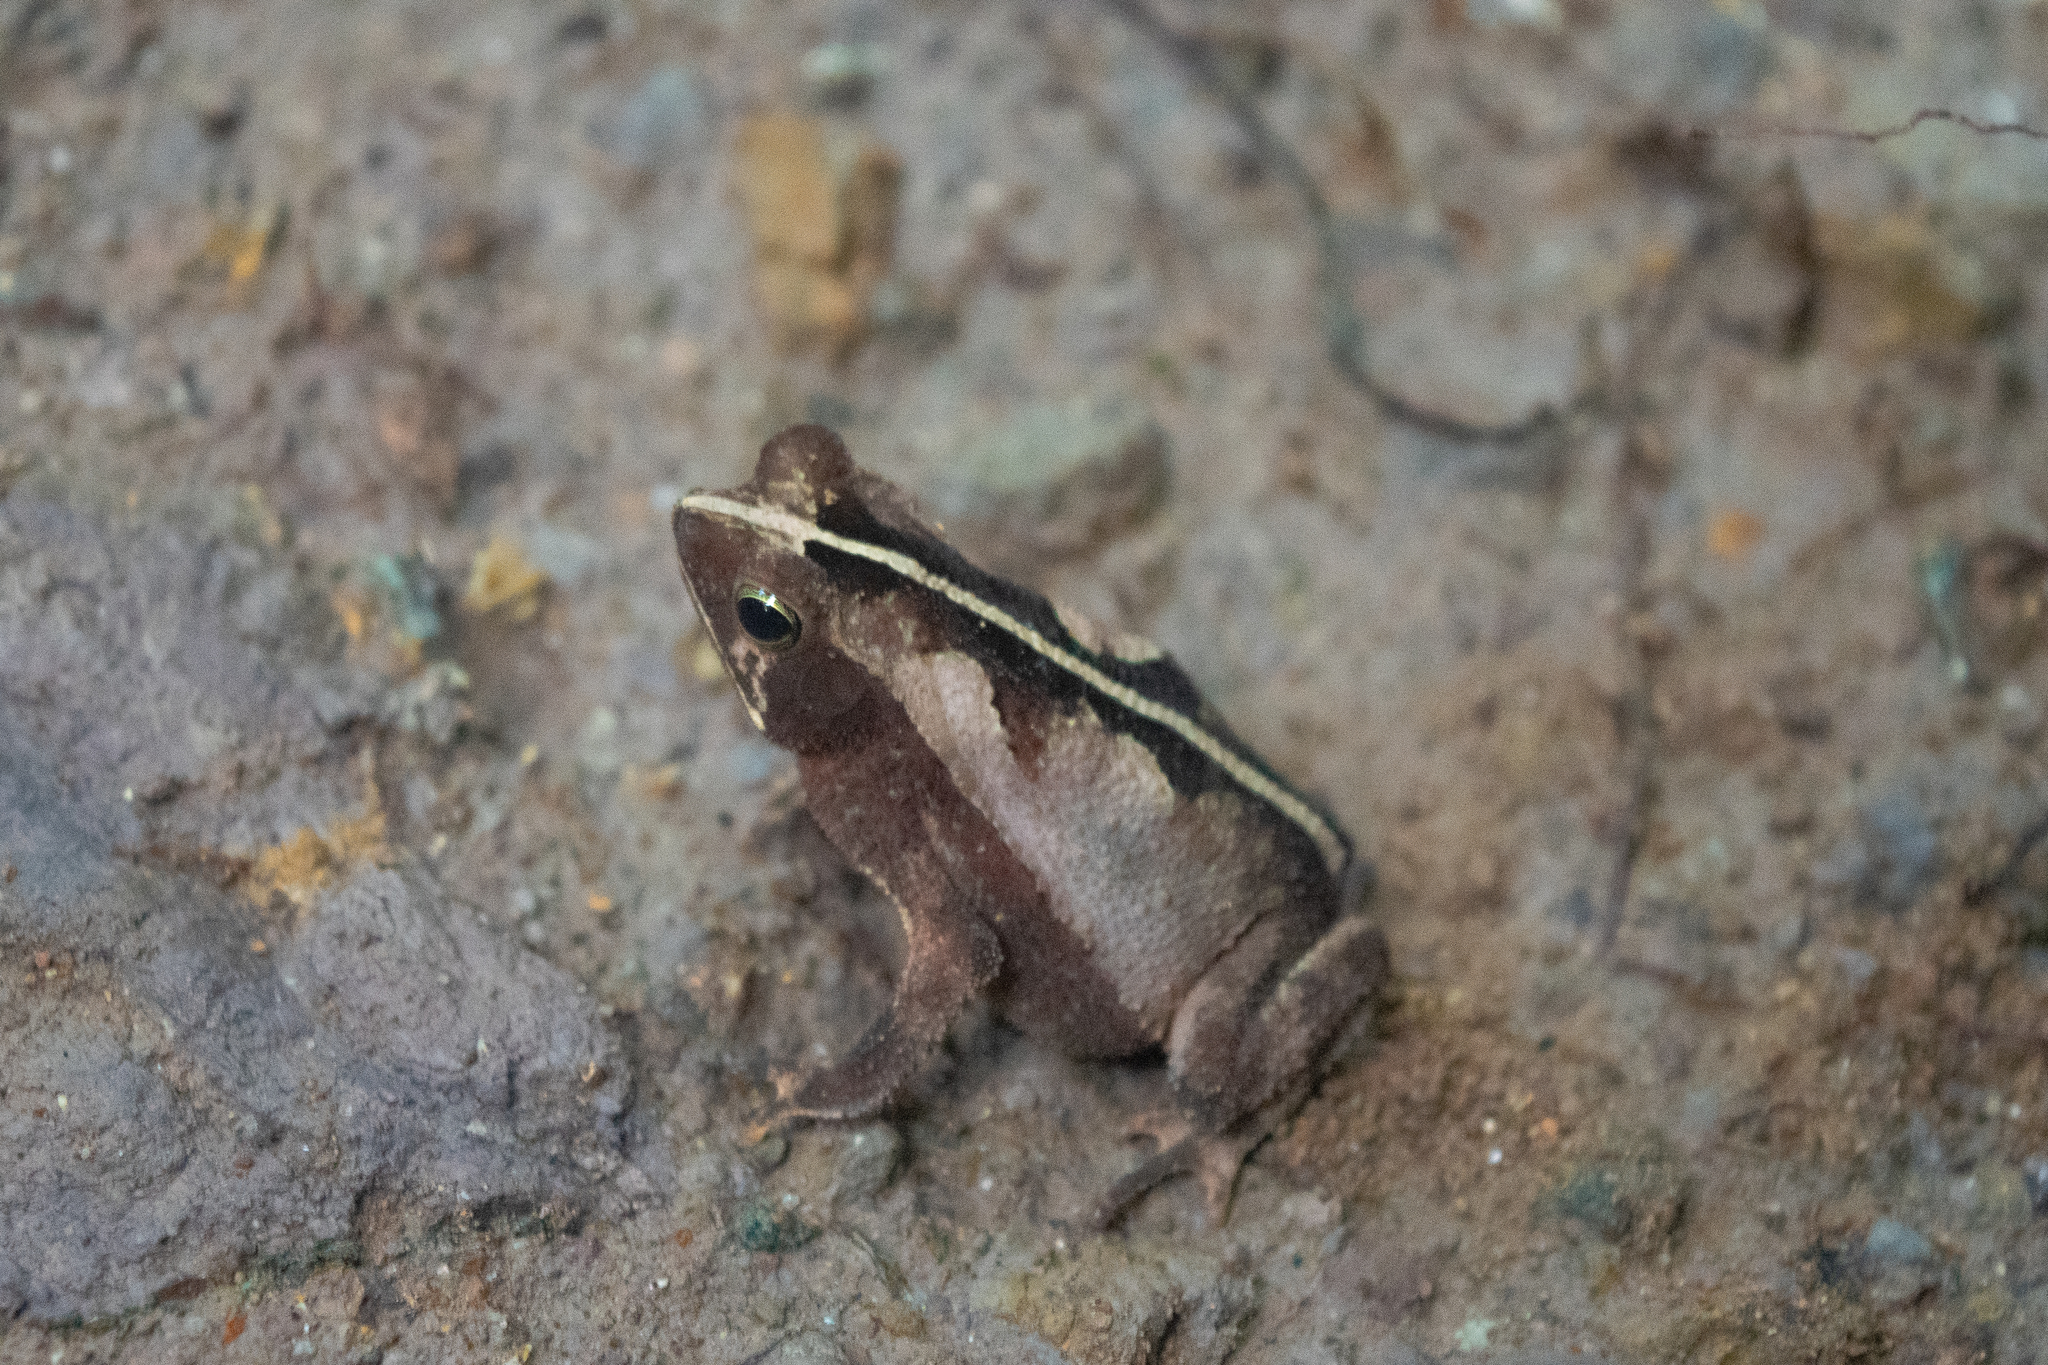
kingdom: Animalia
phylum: Chordata
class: Amphibia
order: Anura
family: Bufonidae
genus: Rhinella
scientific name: Rhinella alata
